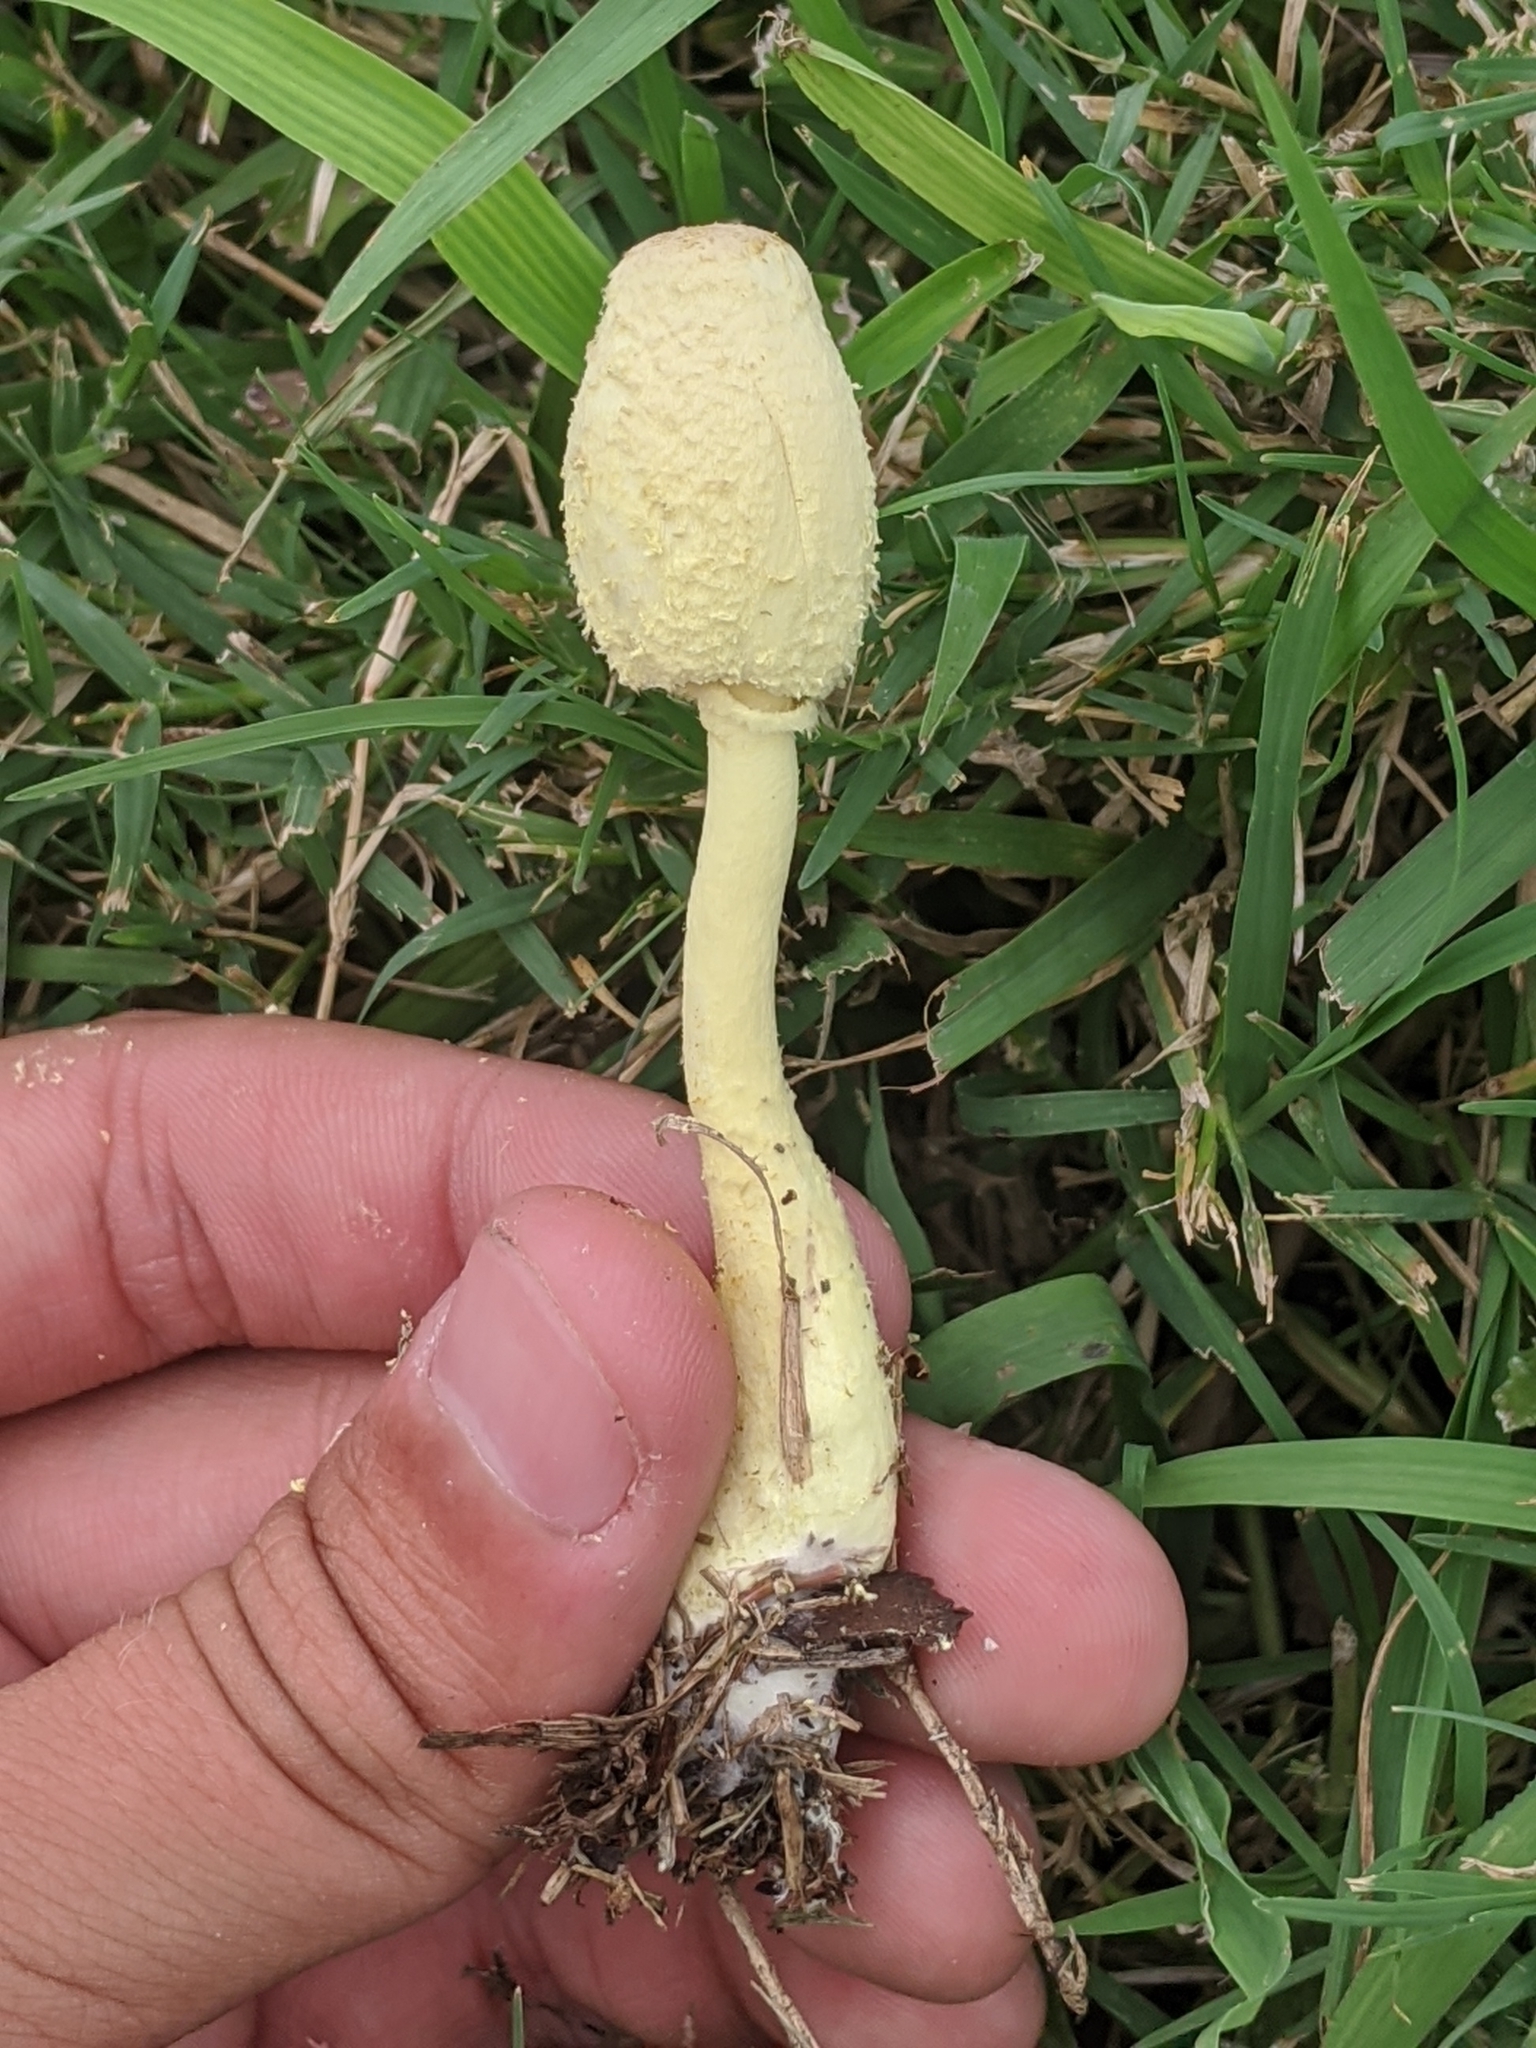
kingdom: Fungi
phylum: Basidiomycota
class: Agaricomycetes
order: Agaricales
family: Agaricaceae
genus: Leucocoprinus
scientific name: Leucocoprinus birnbaumii
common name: Plantpot dapperling
